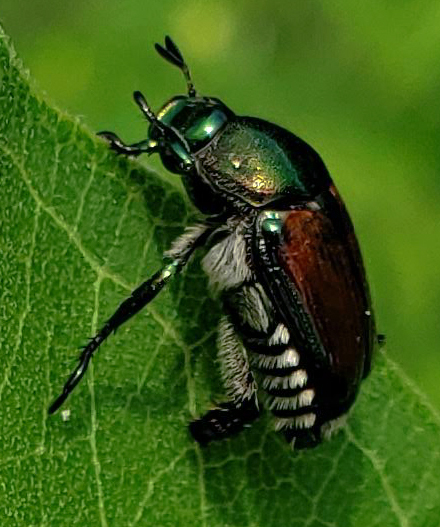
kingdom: Animalia
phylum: Arthropoda
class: Insecta
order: Coleoptera
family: Scarabaeidae
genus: Popillia
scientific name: Popillia japonica
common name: Japanese beetle
